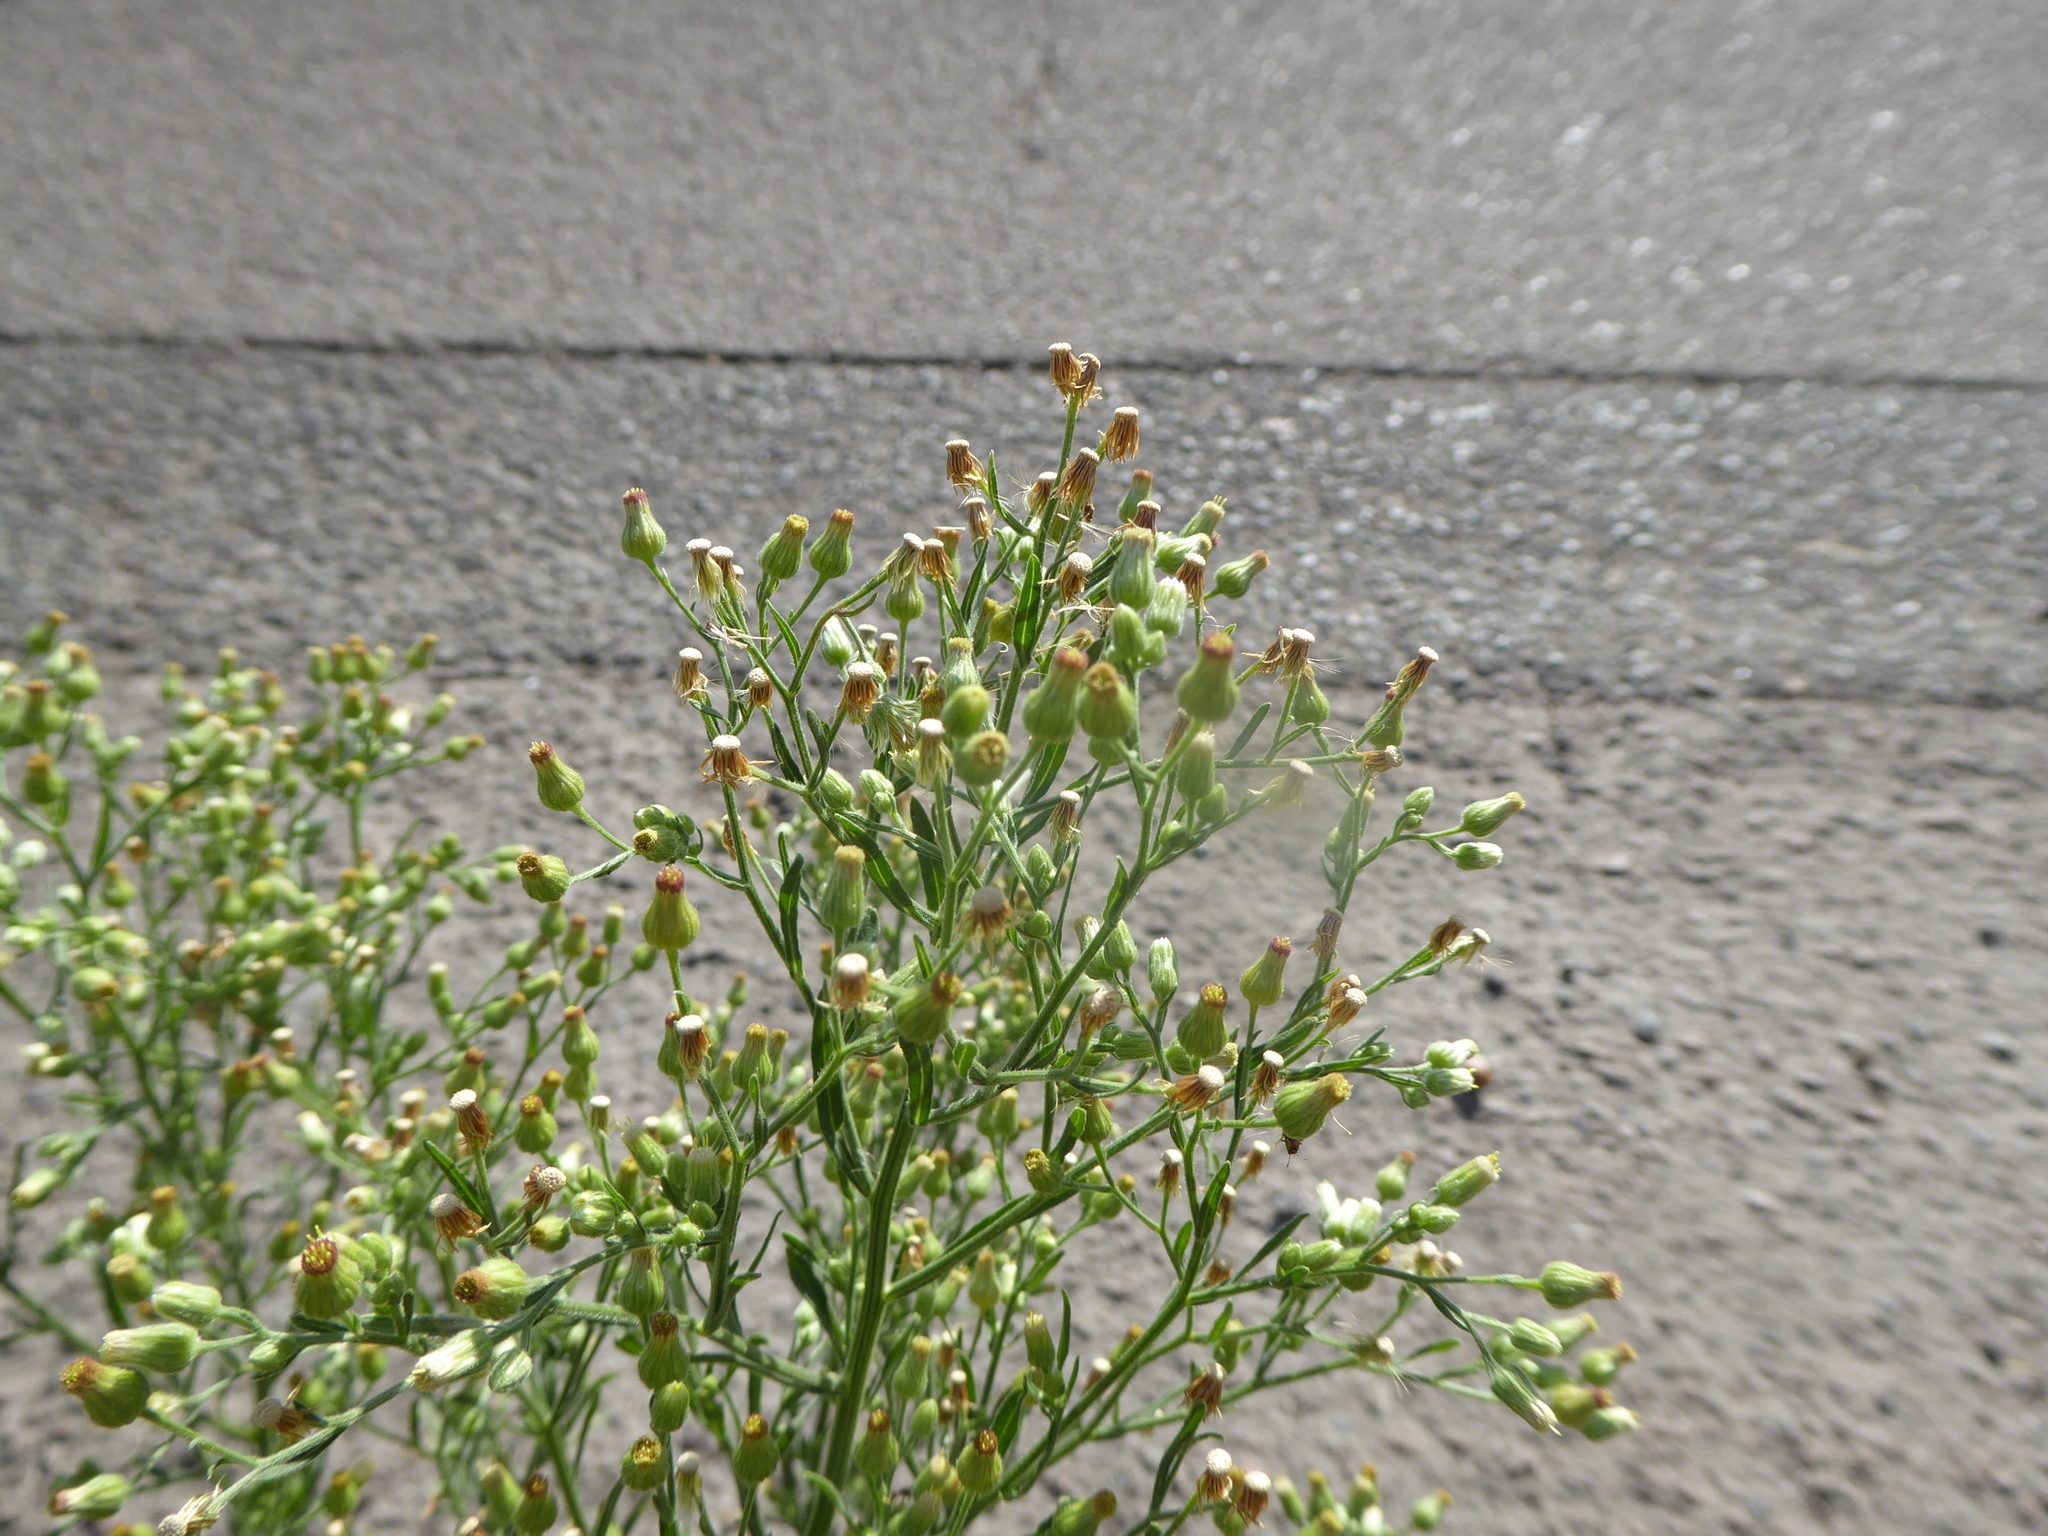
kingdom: Plantae
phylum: Tracheophyta
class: Magnoliopsida
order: Asterales
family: Asteraceae
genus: Erigeron
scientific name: Erigeron sumatrensis
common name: Daisy
